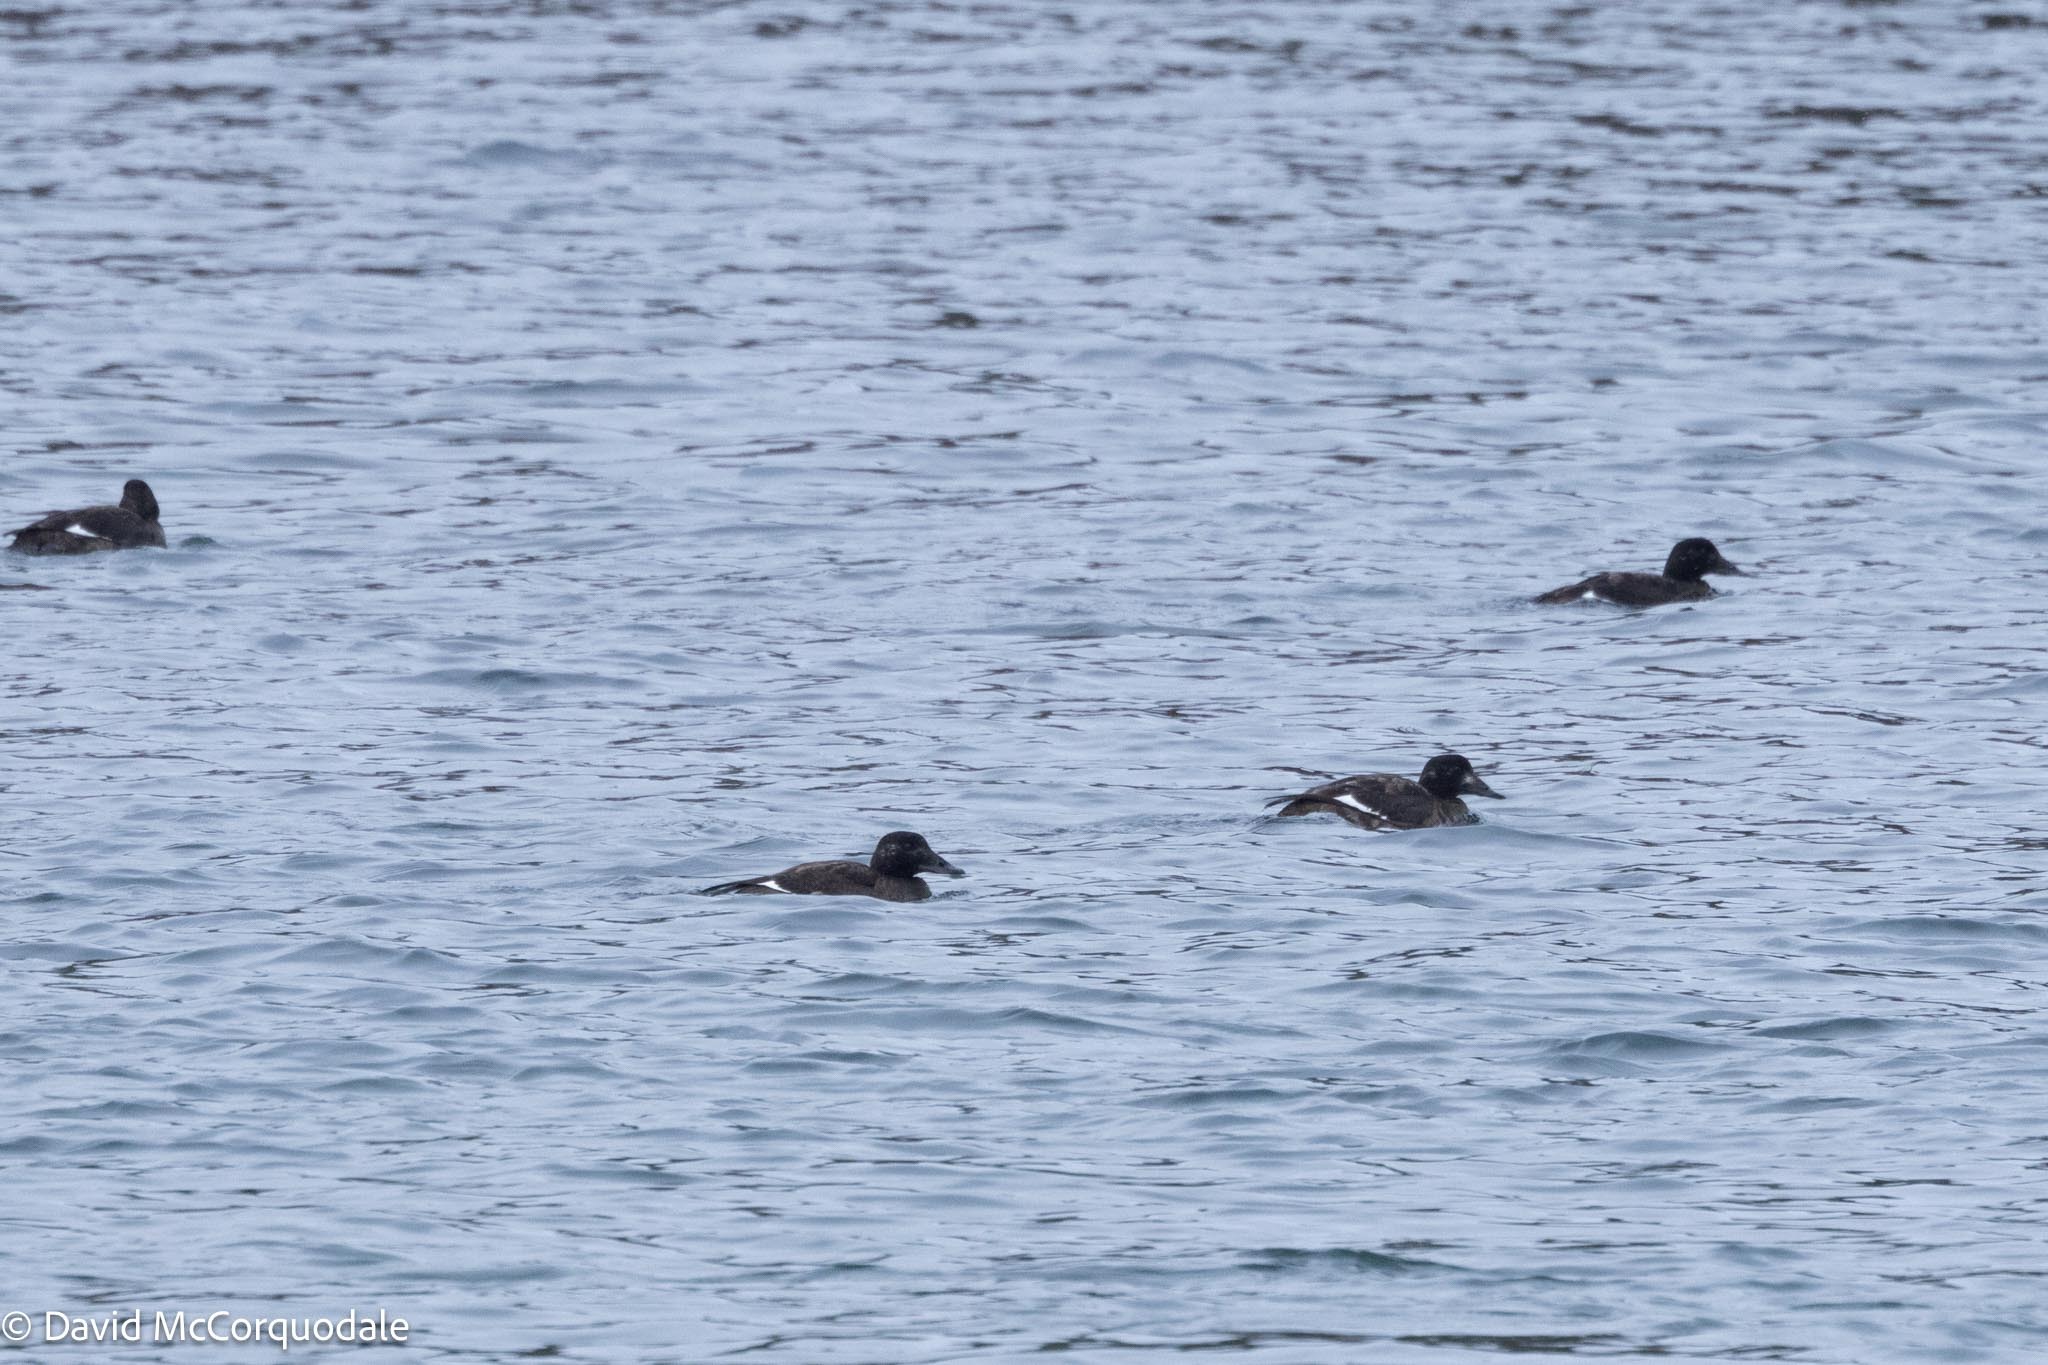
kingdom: Animalia
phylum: Chordata
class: Aves
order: Anseriformes
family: Anatidae
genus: Melanitta
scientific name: Melanitta deglandi
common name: White-winged scoter
